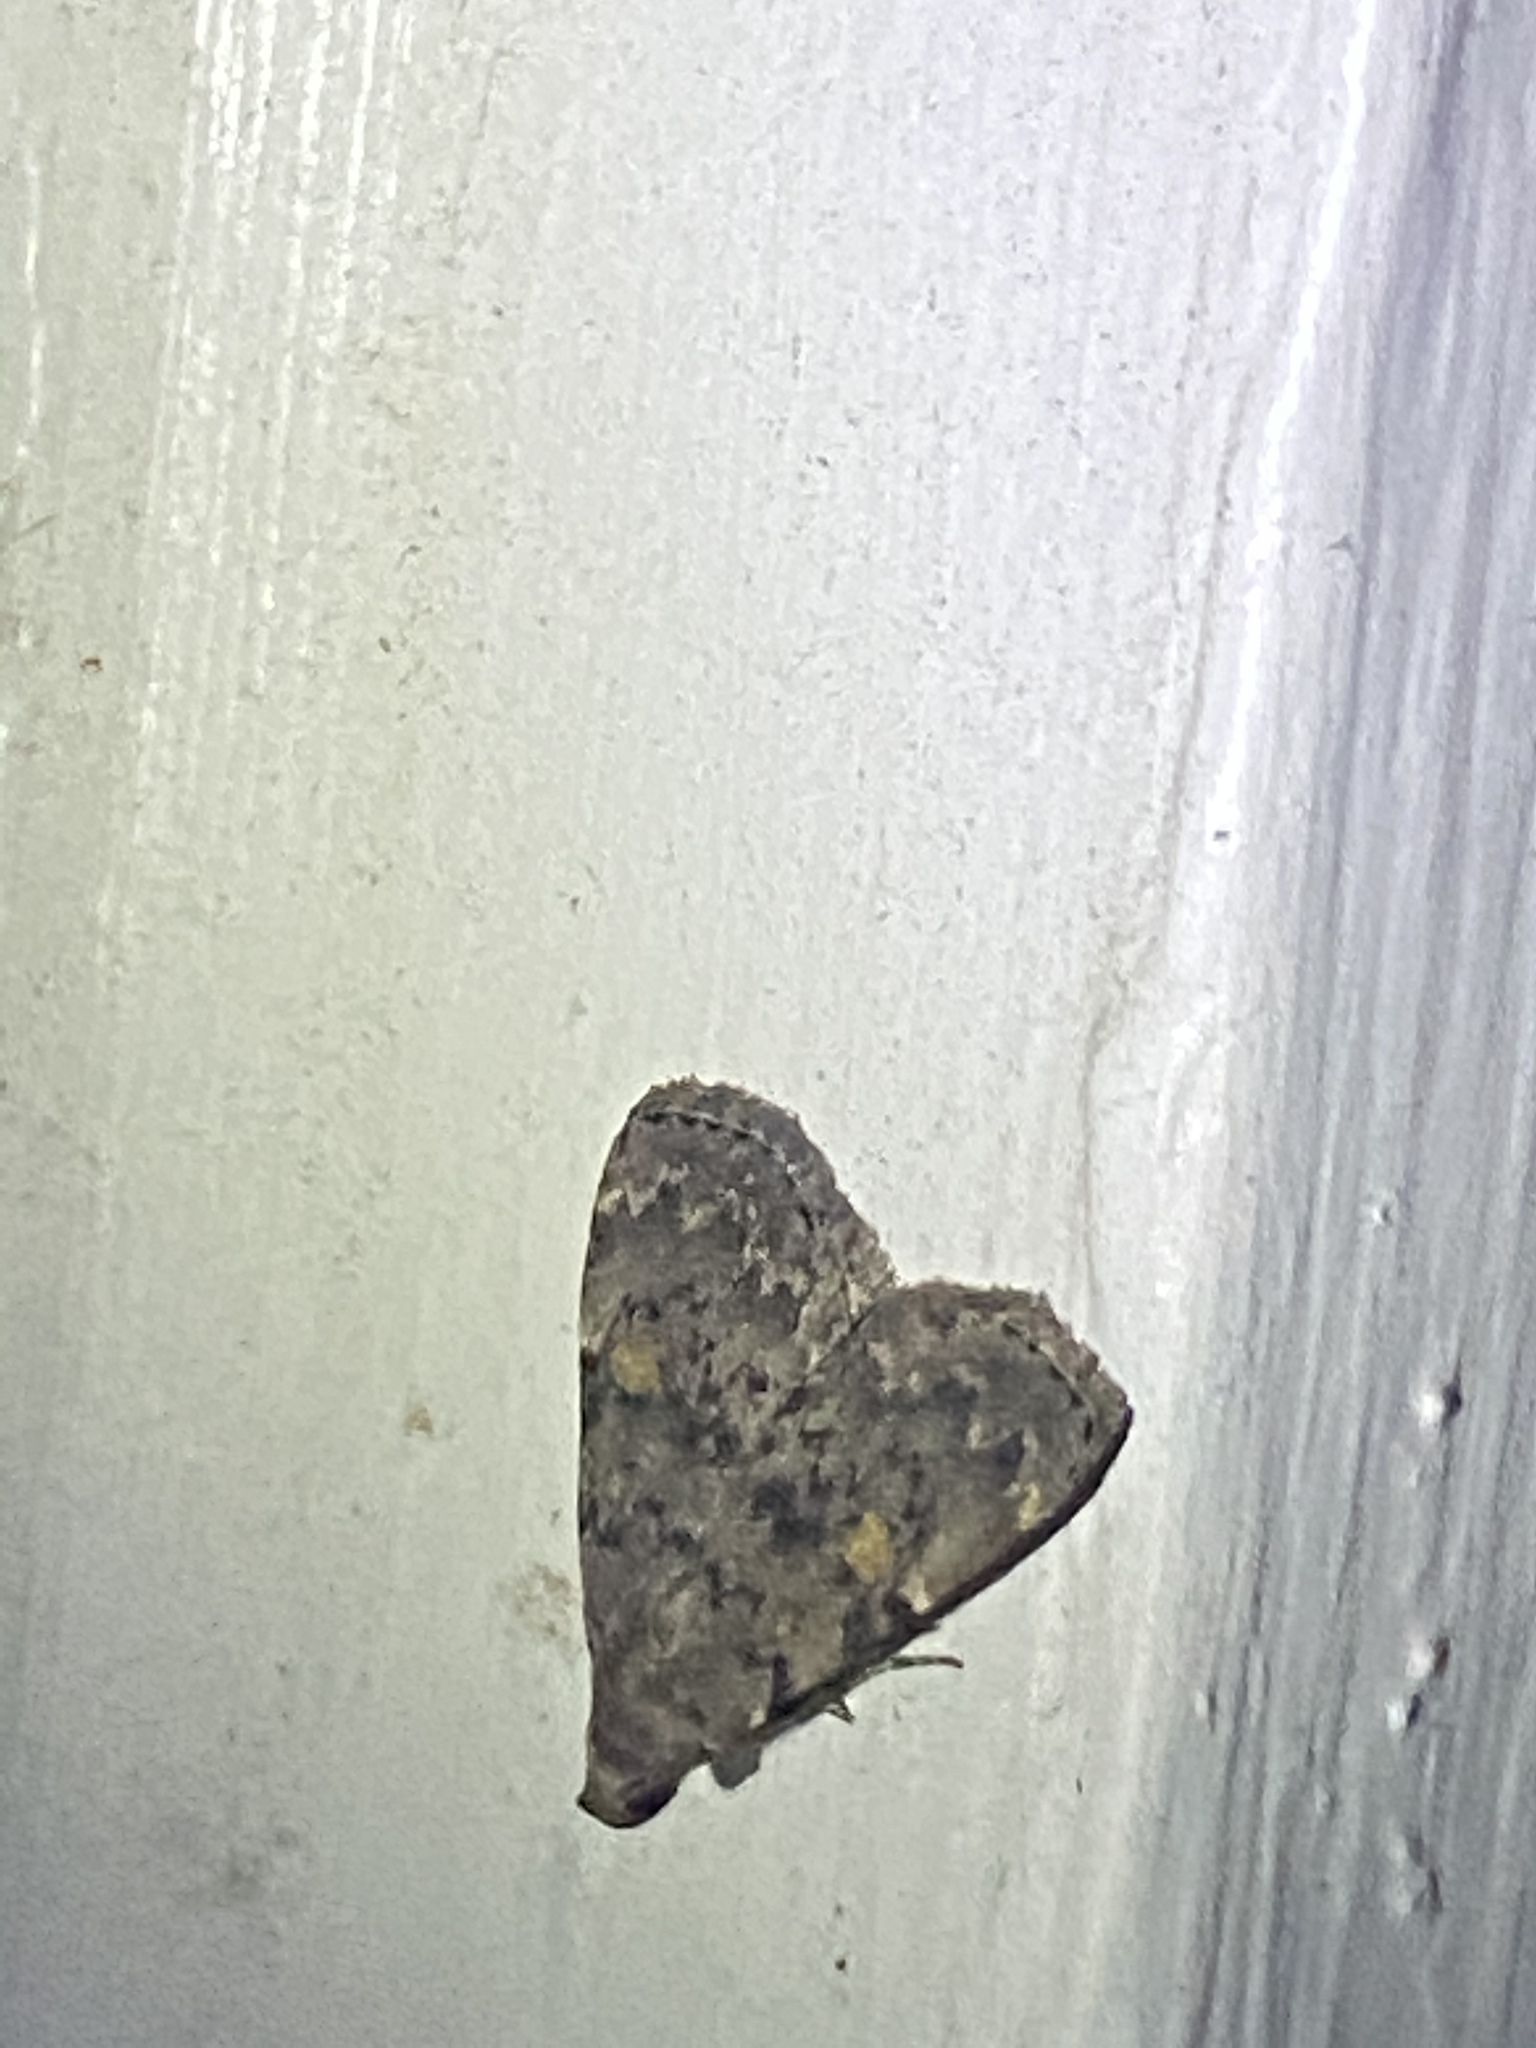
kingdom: Animalia
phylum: Arthropoda
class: Insecta
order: Lepidoptera
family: Erebidae
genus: Idia
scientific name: Idia aemula
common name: Common idia moth
